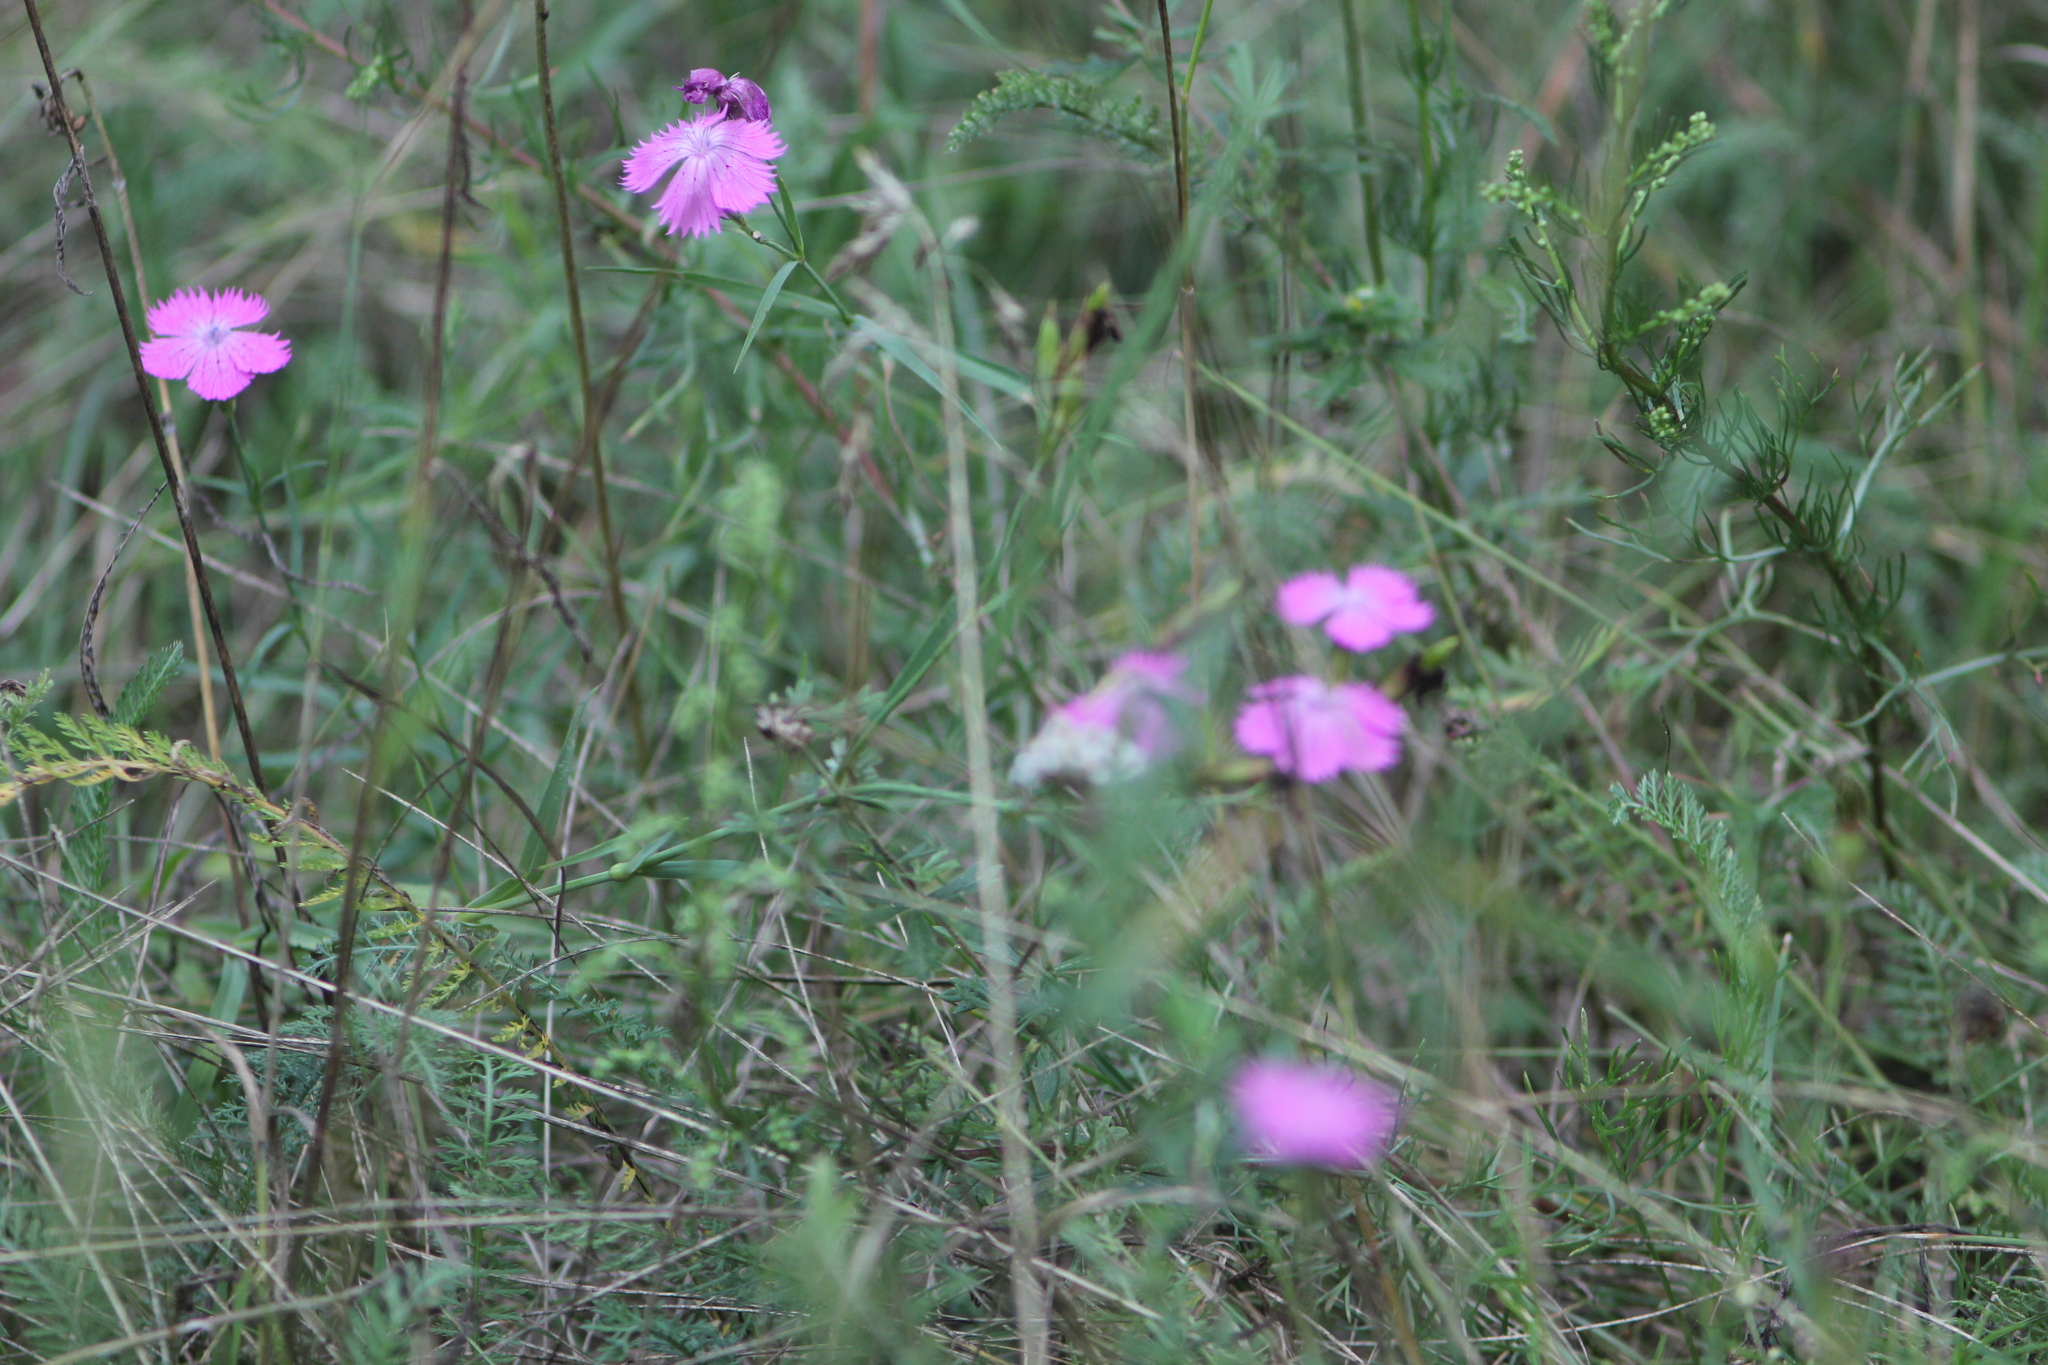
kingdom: Plantae
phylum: Tracheophyta
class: Magnoliopsida
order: Caryophyllales
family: Caryophyllaceae
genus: Dianthus
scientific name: Dianthus chinensis
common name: Rainbow pink
